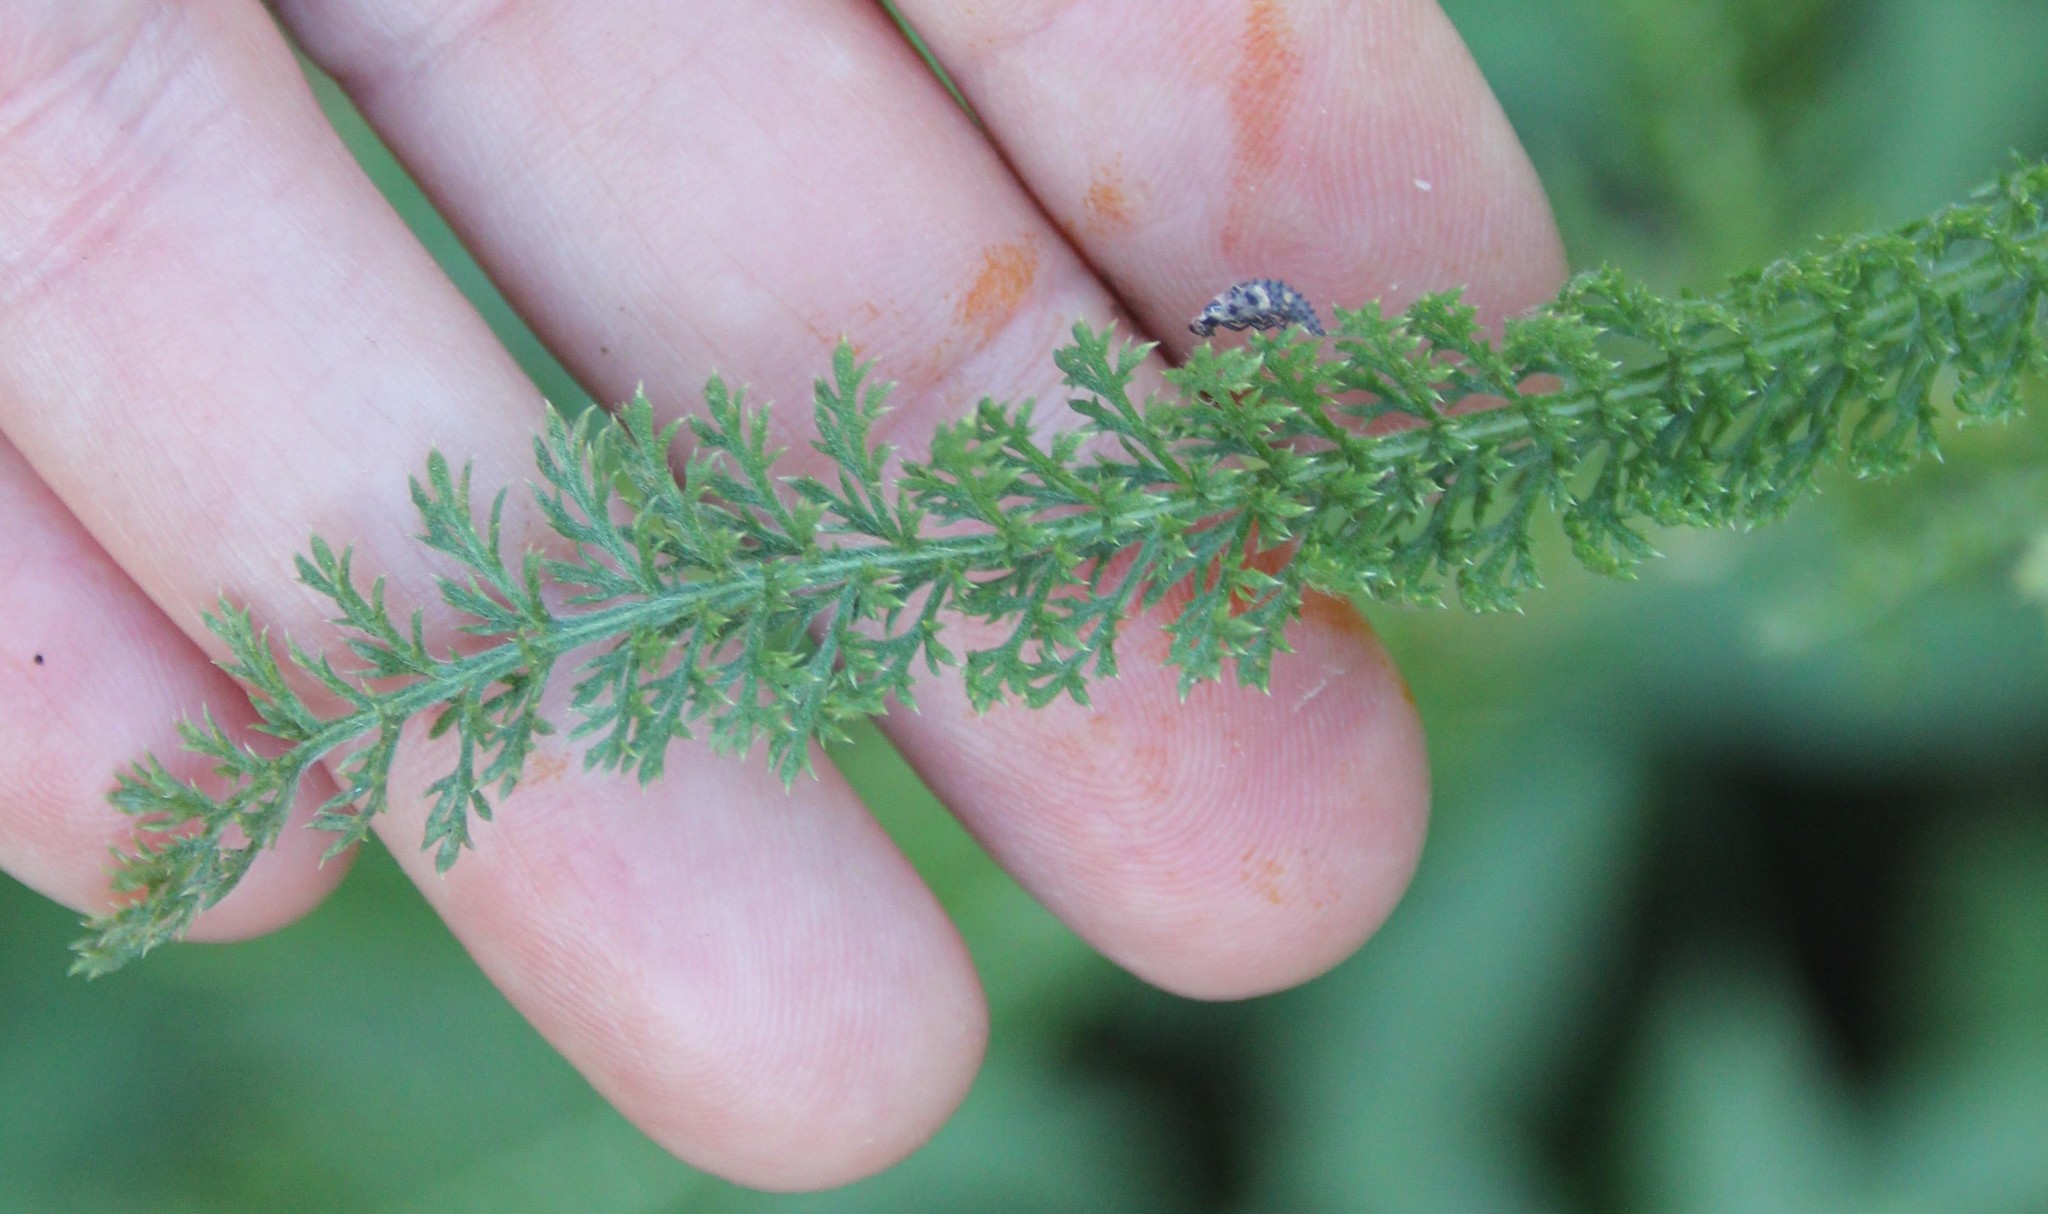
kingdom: Plantae
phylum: Tracheophyta
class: Magnoliopsida
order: Asterales
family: Asteraceae
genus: Achillea
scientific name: Achillea millefolium
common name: Yarrow
